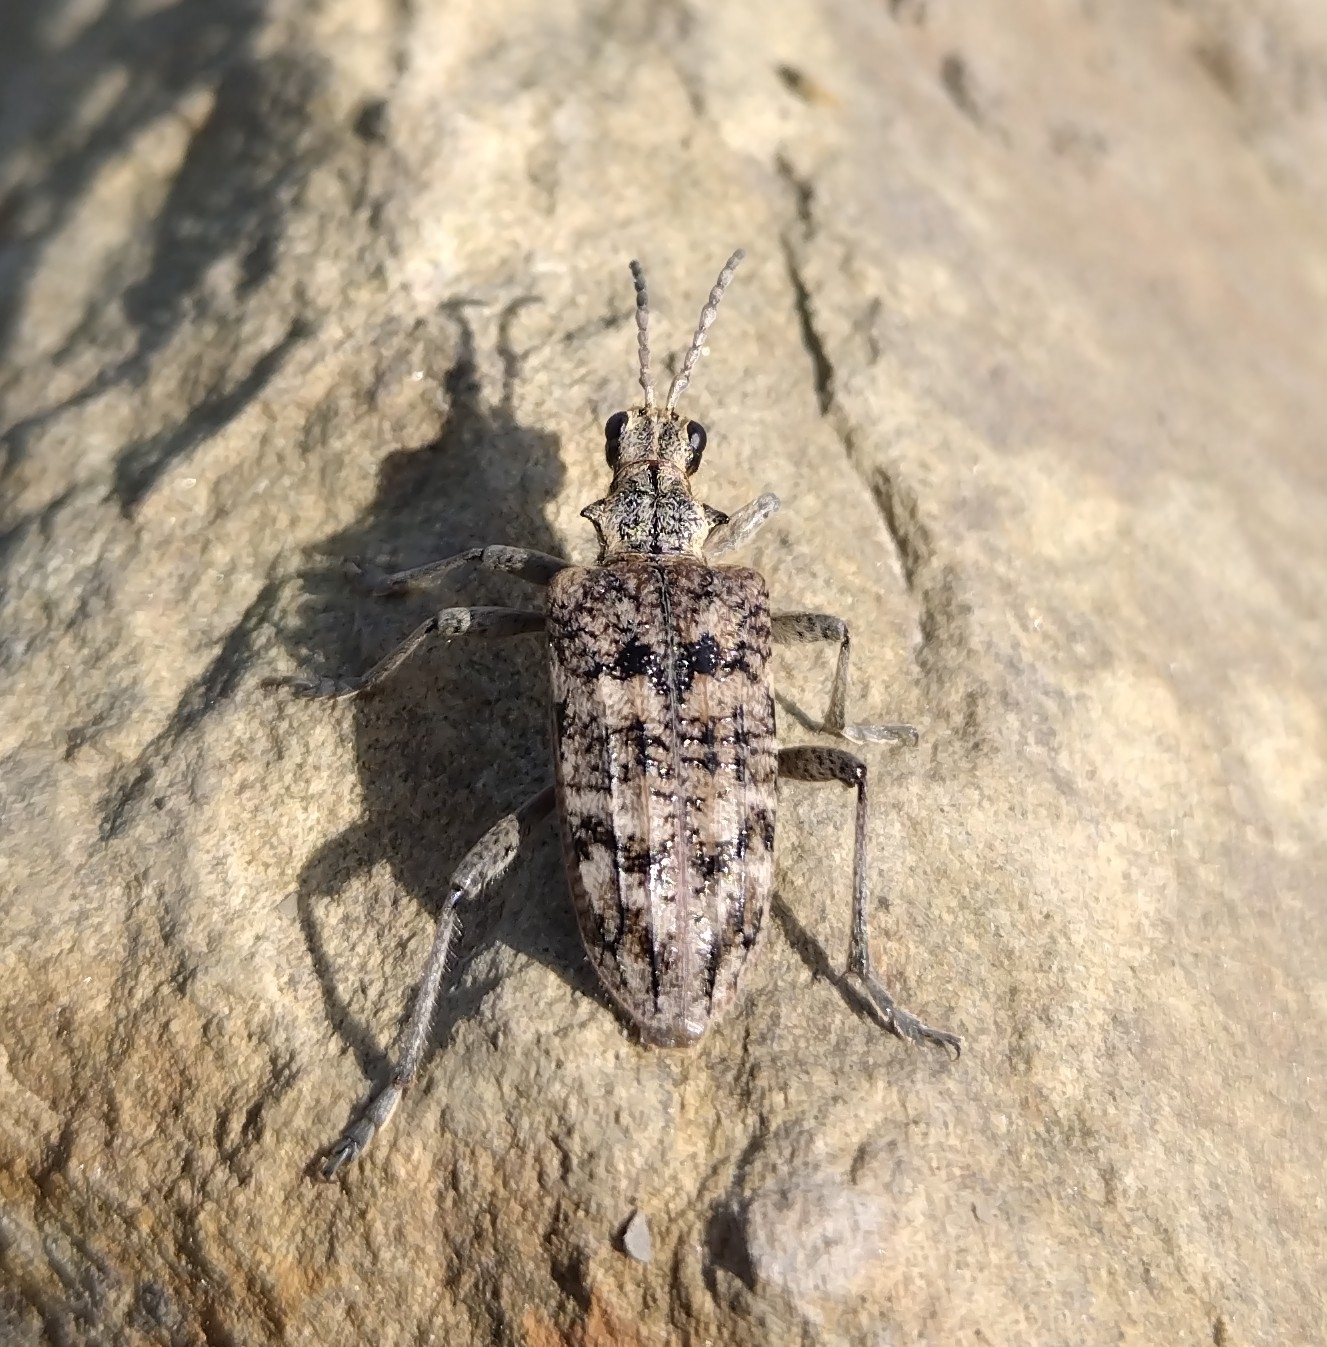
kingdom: Animalia
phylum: Arthropoda
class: Insecta
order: Coleoptera
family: Cerambycidae
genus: Rhagium
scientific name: Rhagium inquisitor
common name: Ribbed pine borer
